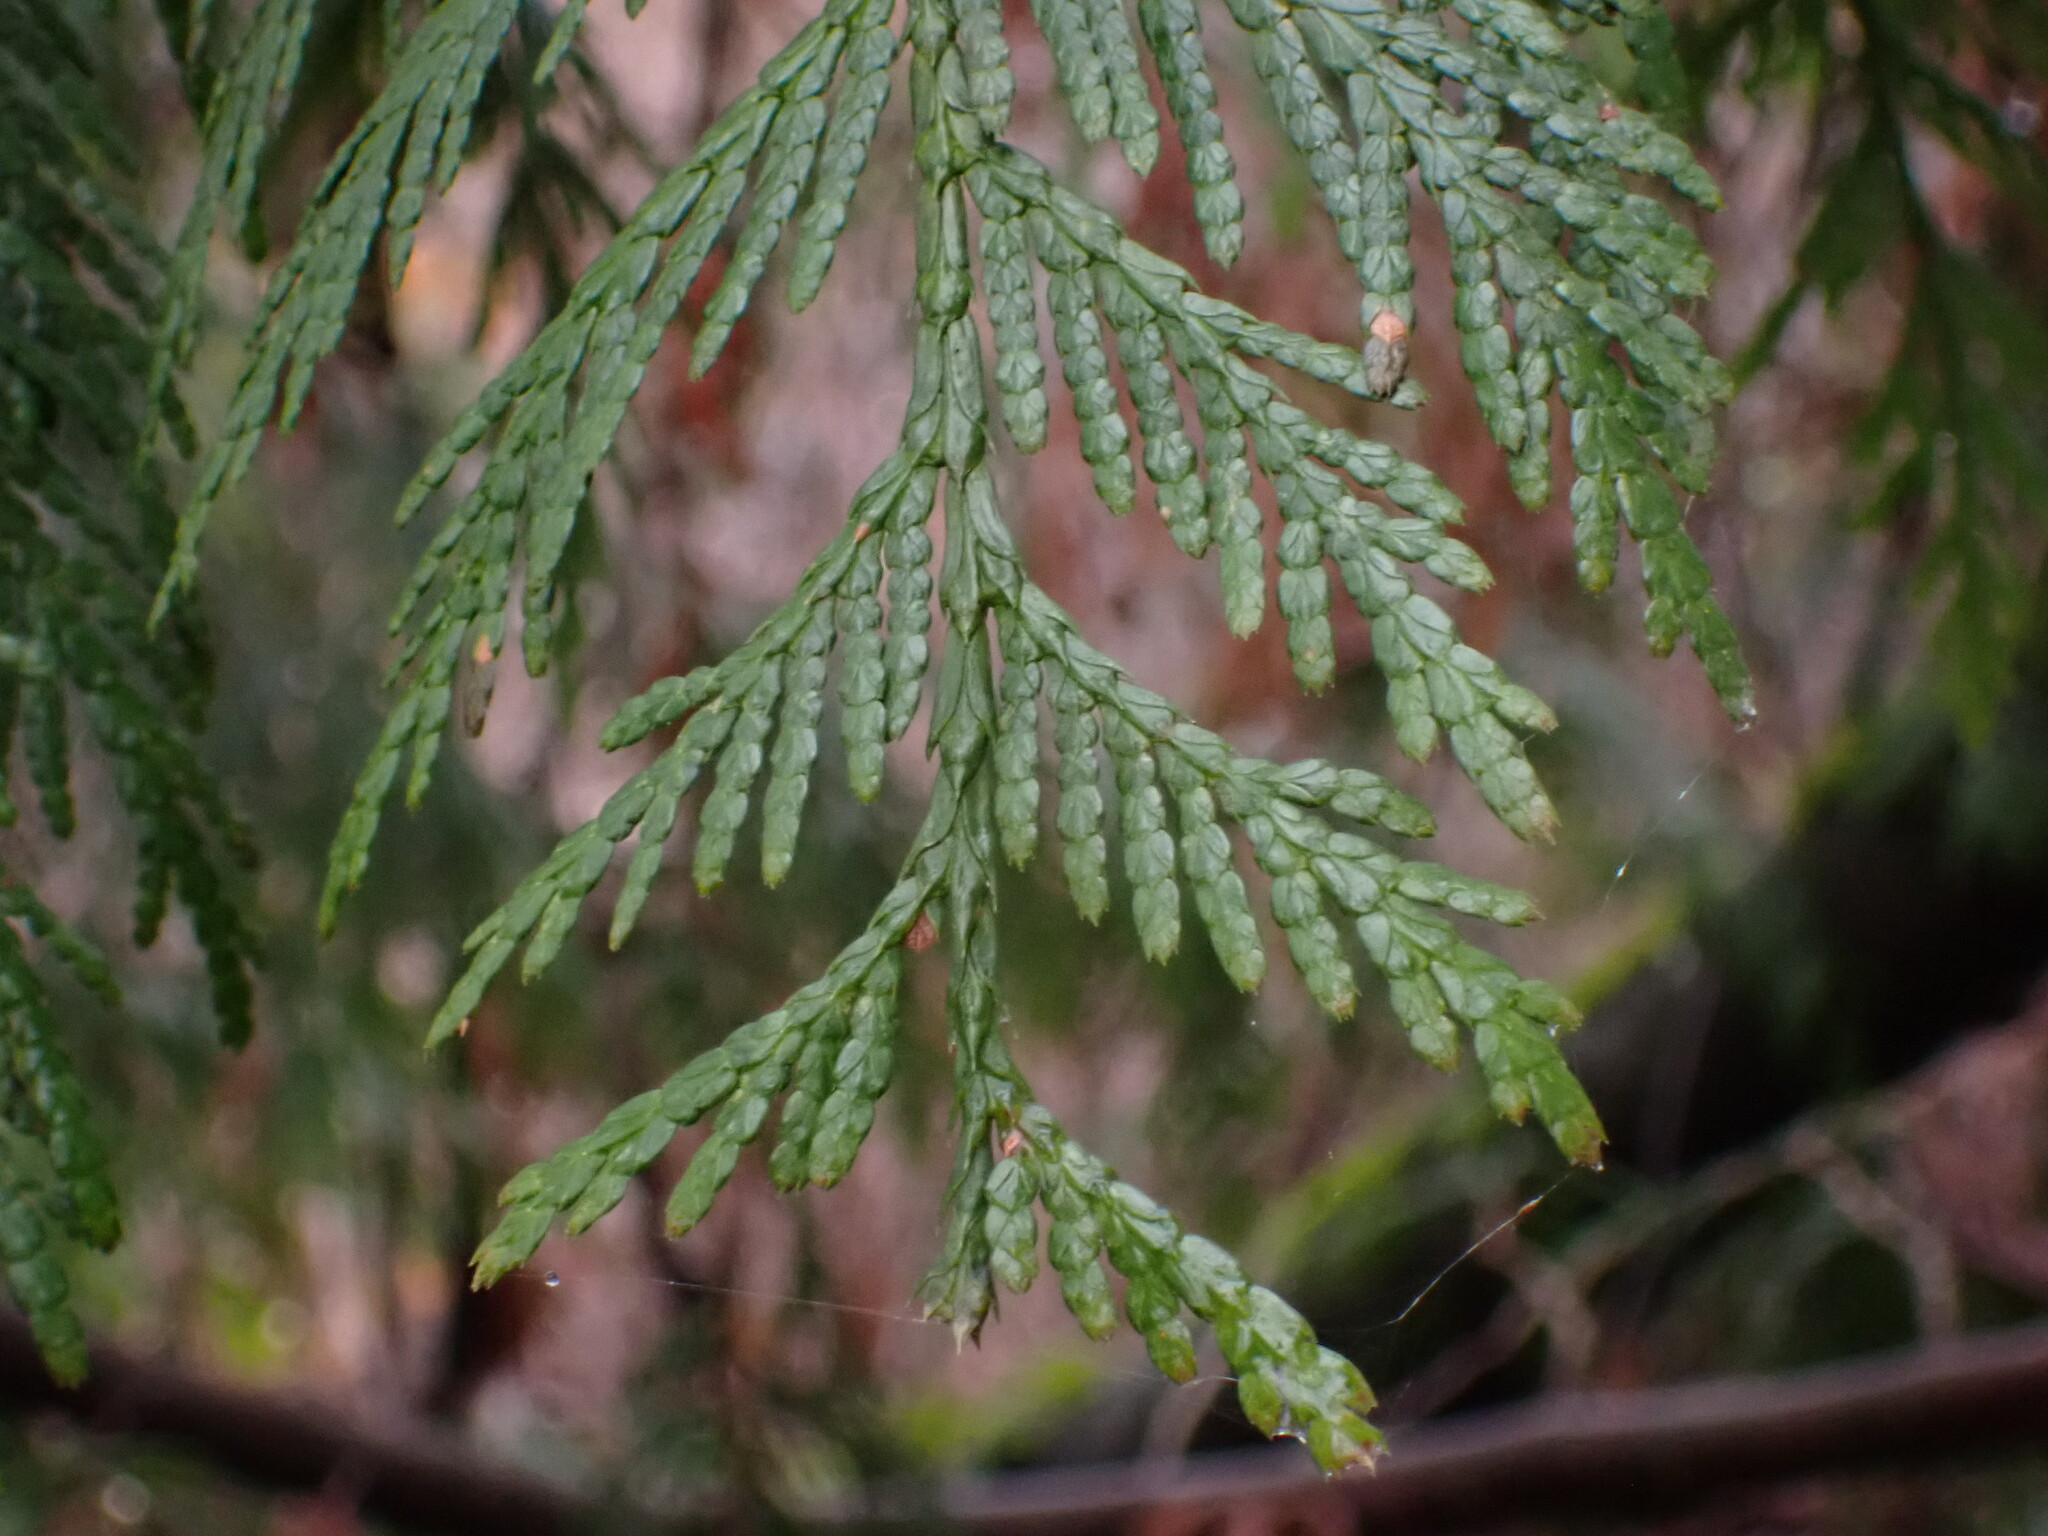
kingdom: Plantae
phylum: Tracheophyta
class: Pinopsida
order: Pinales
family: Cupressaceae
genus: Thuja
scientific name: Thuja plicata
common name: Western red-cedar
